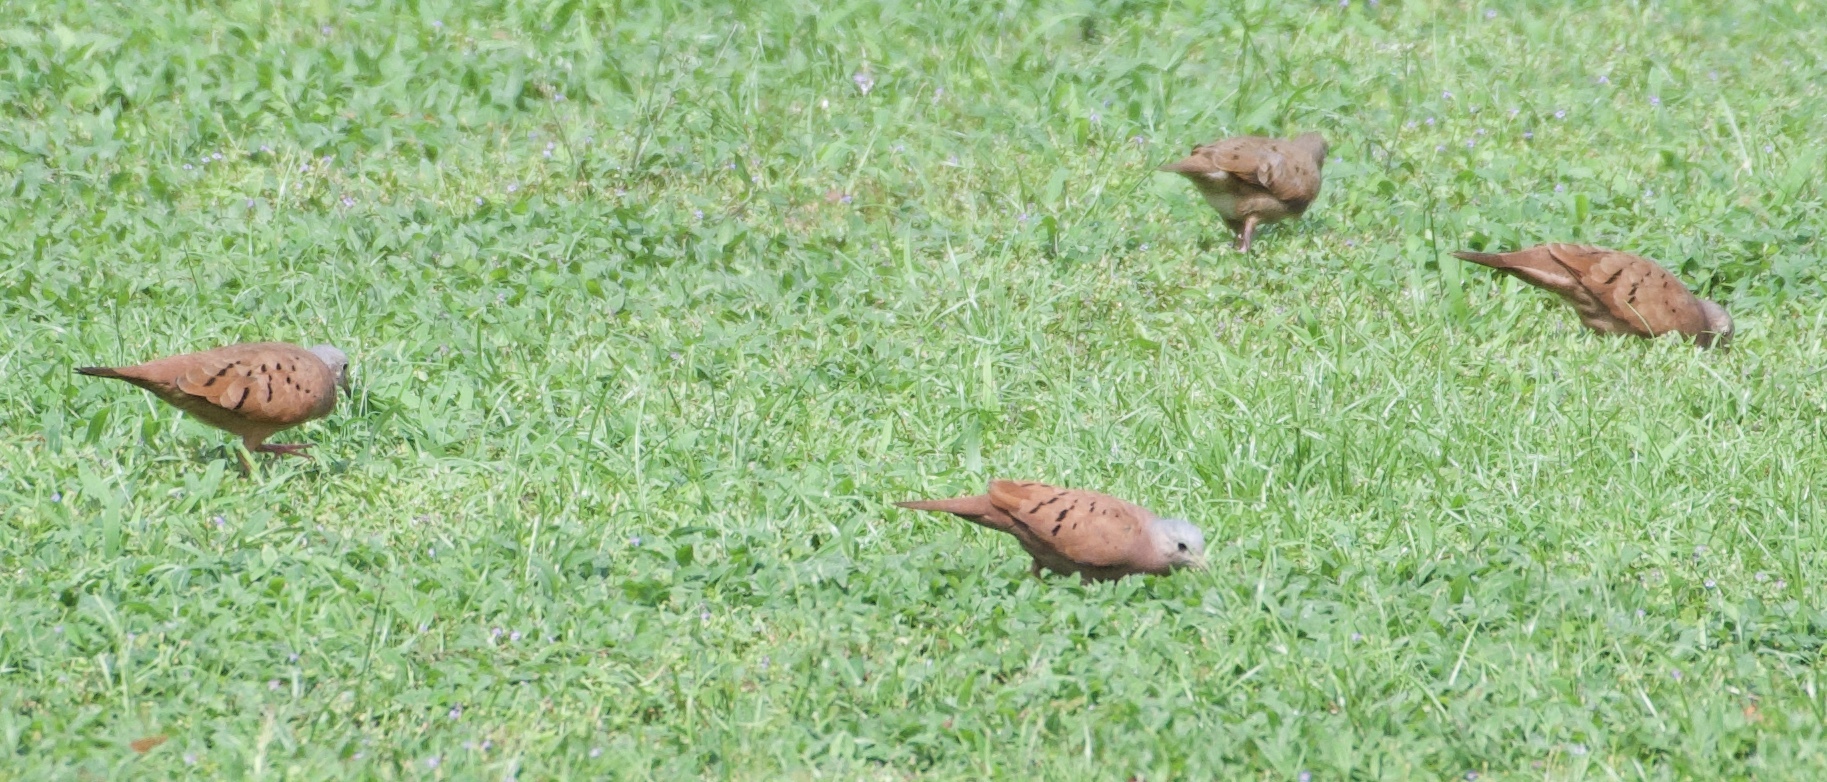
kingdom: Animalia
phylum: Chordata
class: Aves
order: Columbiformes
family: Columbidae
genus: Columbina
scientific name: Columbina talpacoti
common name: Ruddy ground dove
